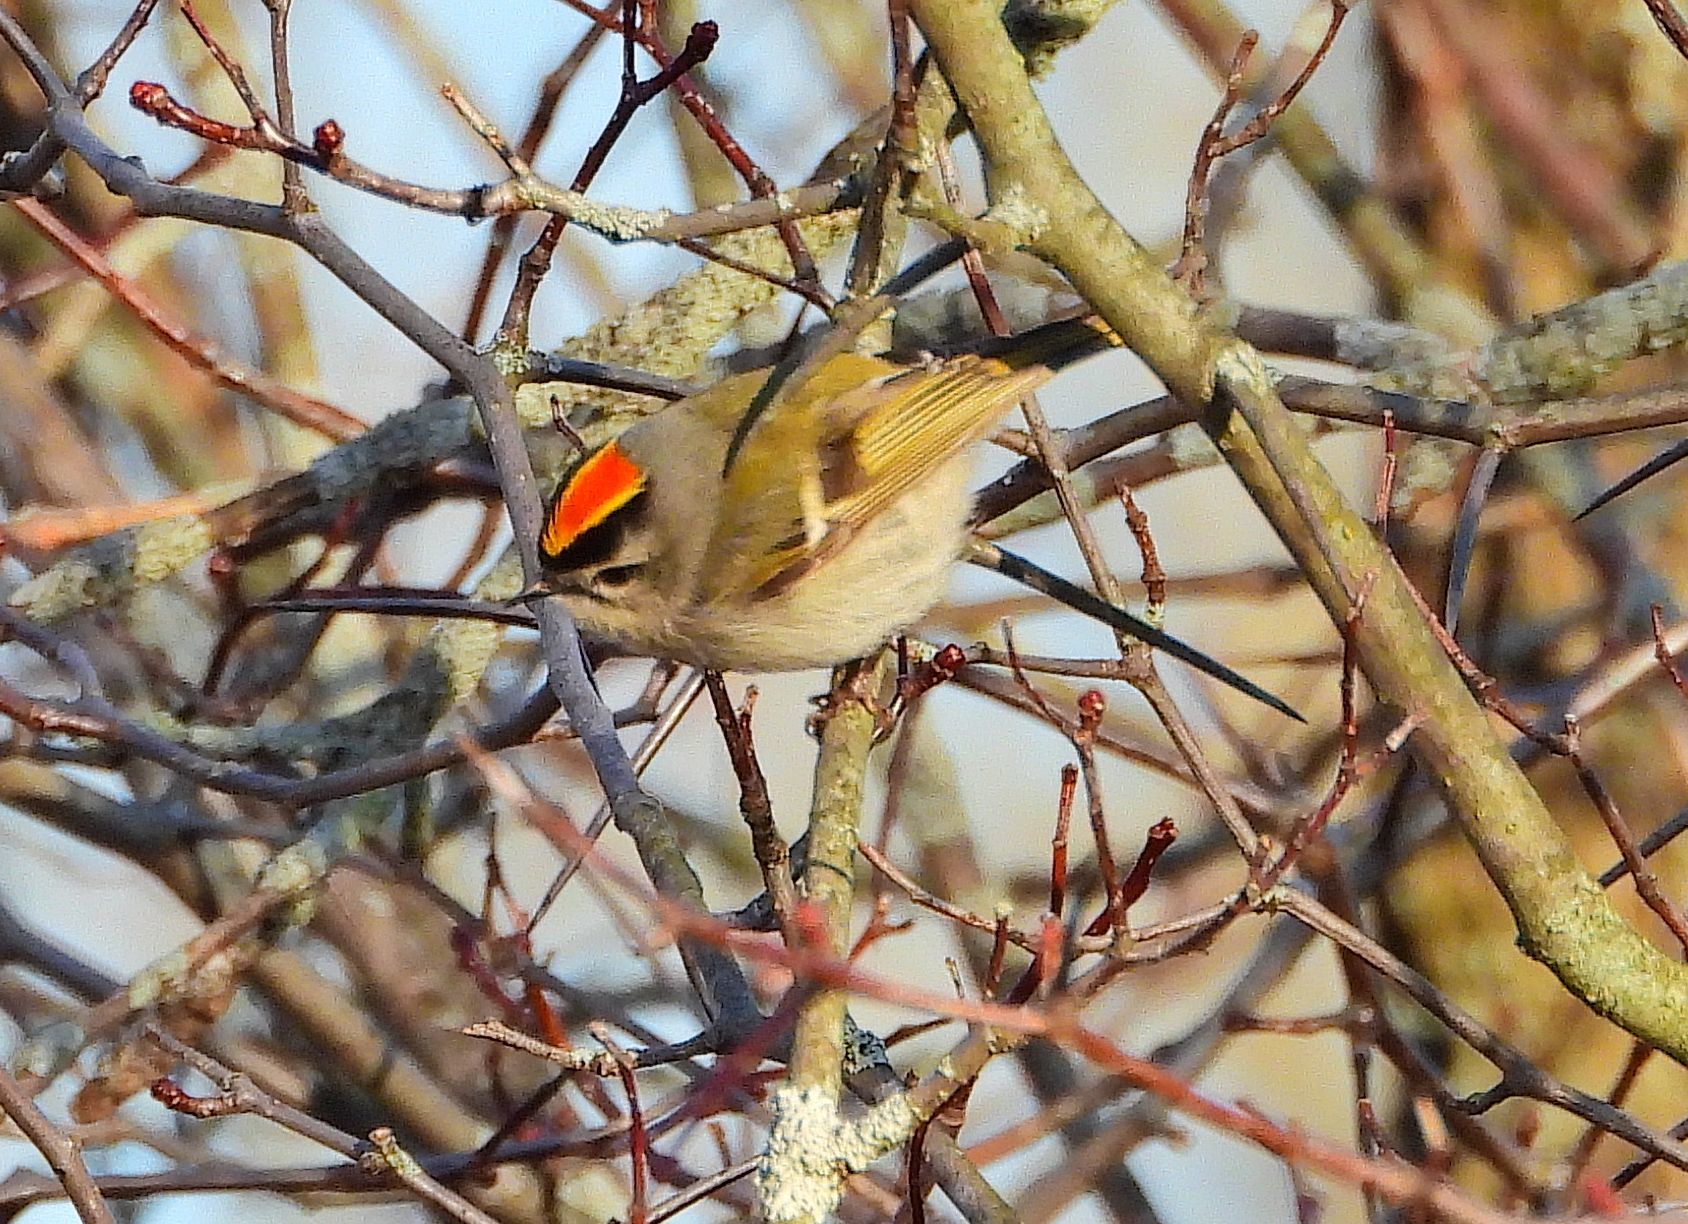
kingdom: Animalia
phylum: Chordata
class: Aves
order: Passeriformes
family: Regulidae
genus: Regulus
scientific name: Regulus satrapa
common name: Golden-crowned kinglet
